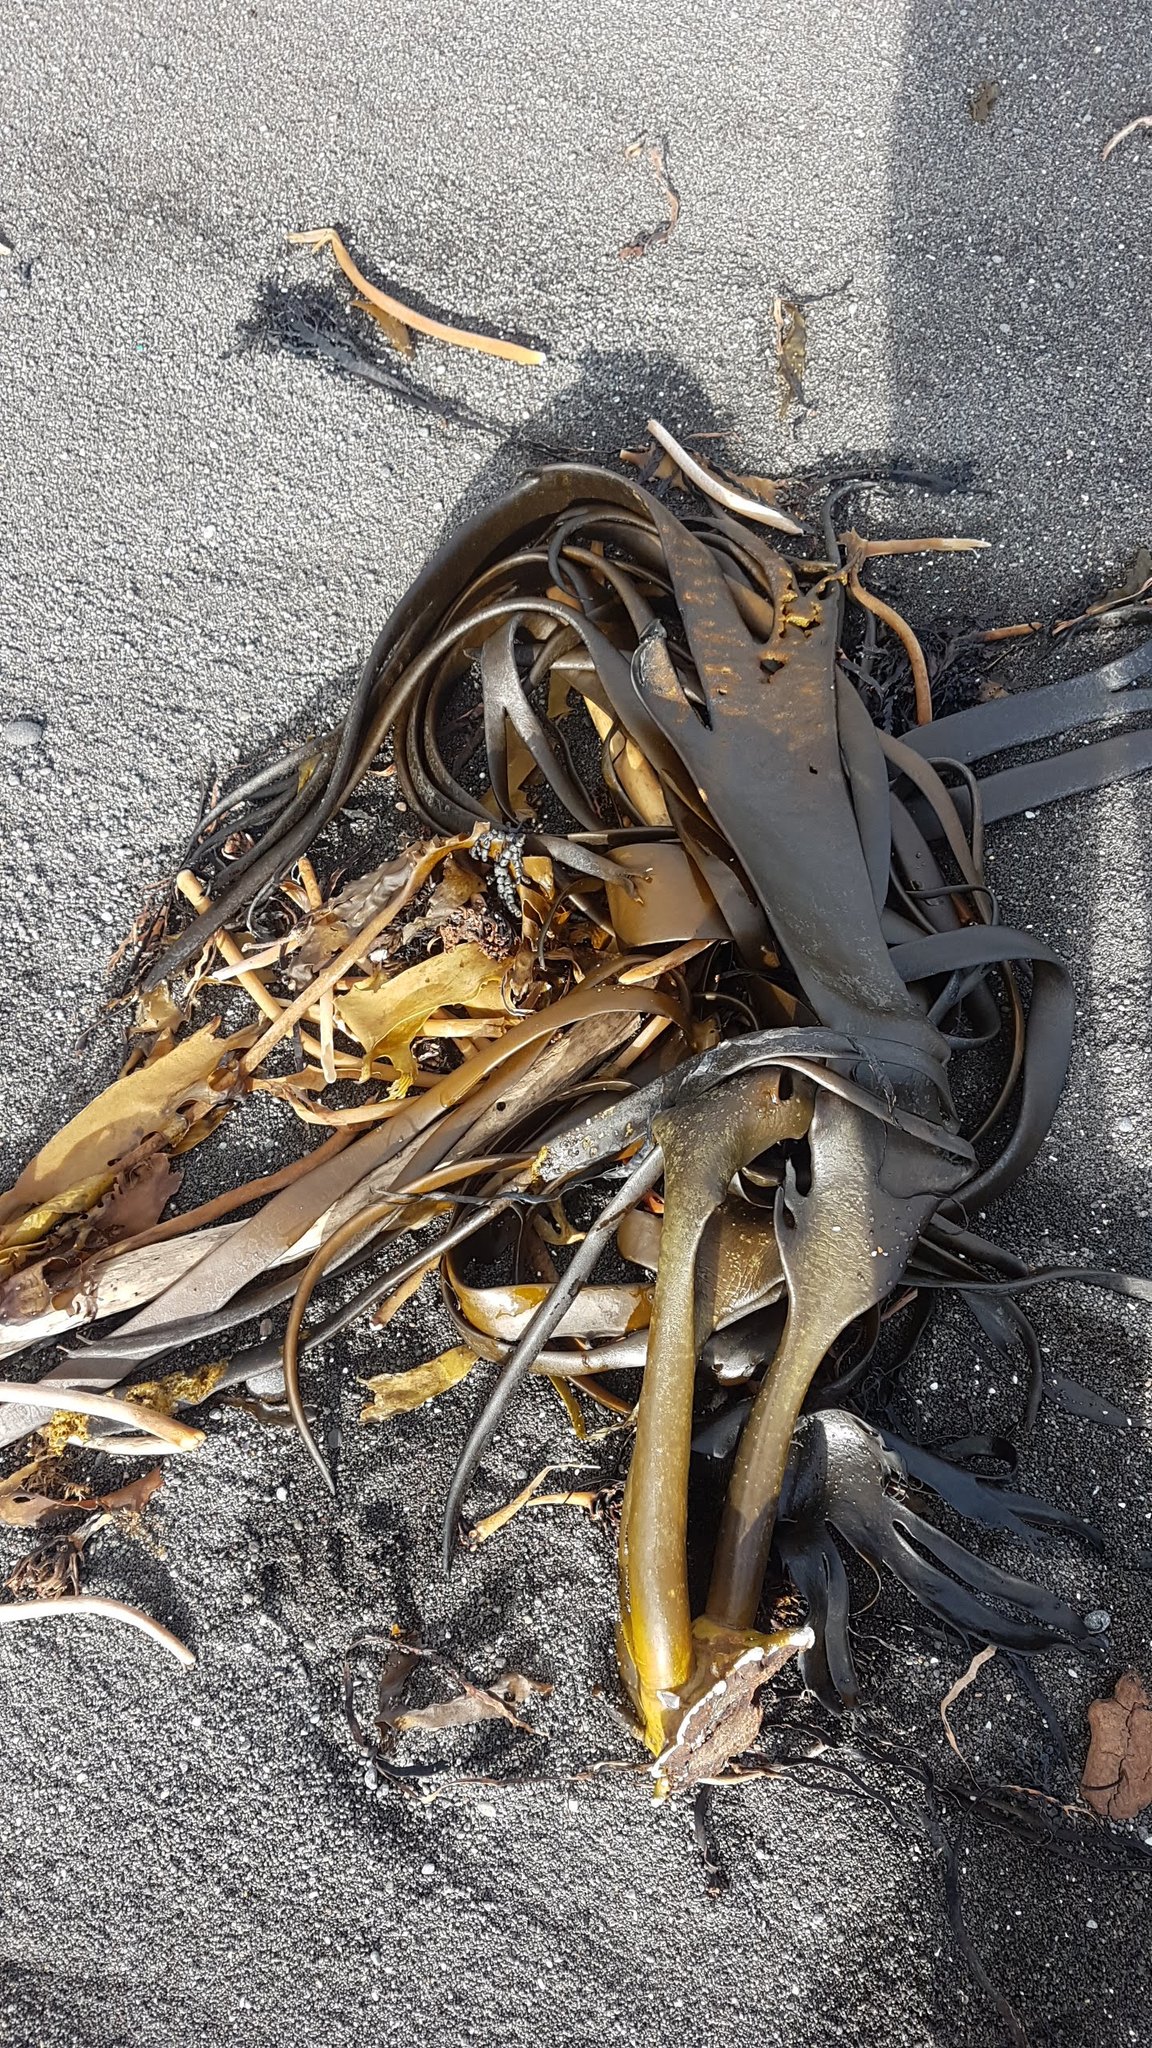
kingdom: Chromista
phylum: Ochrophyta
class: Phaeophyceae
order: Fucales
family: Durvillaeaceae
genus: Durvillaea
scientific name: Durvillaea antarctica
